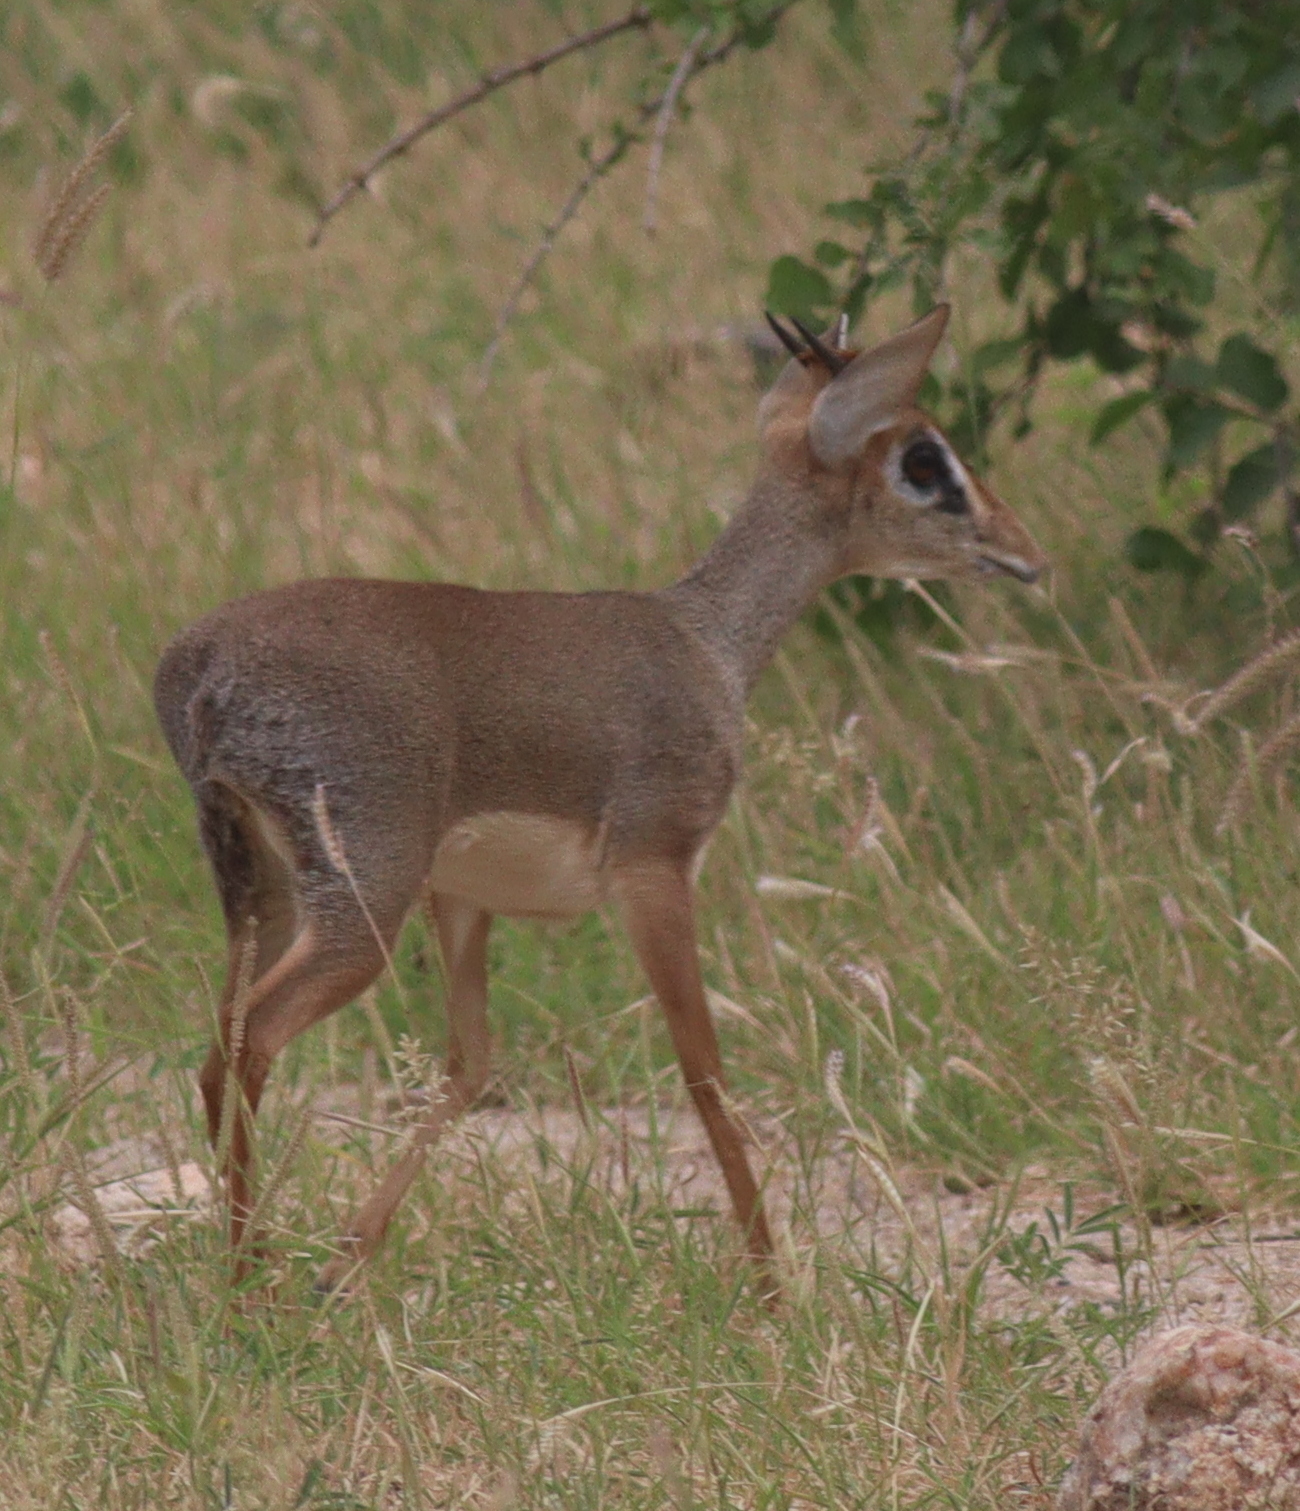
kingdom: Animalia
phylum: Chordata
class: Mammalia
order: Artiodactyla
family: Bovidae
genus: Madoqua
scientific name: Madoqua
